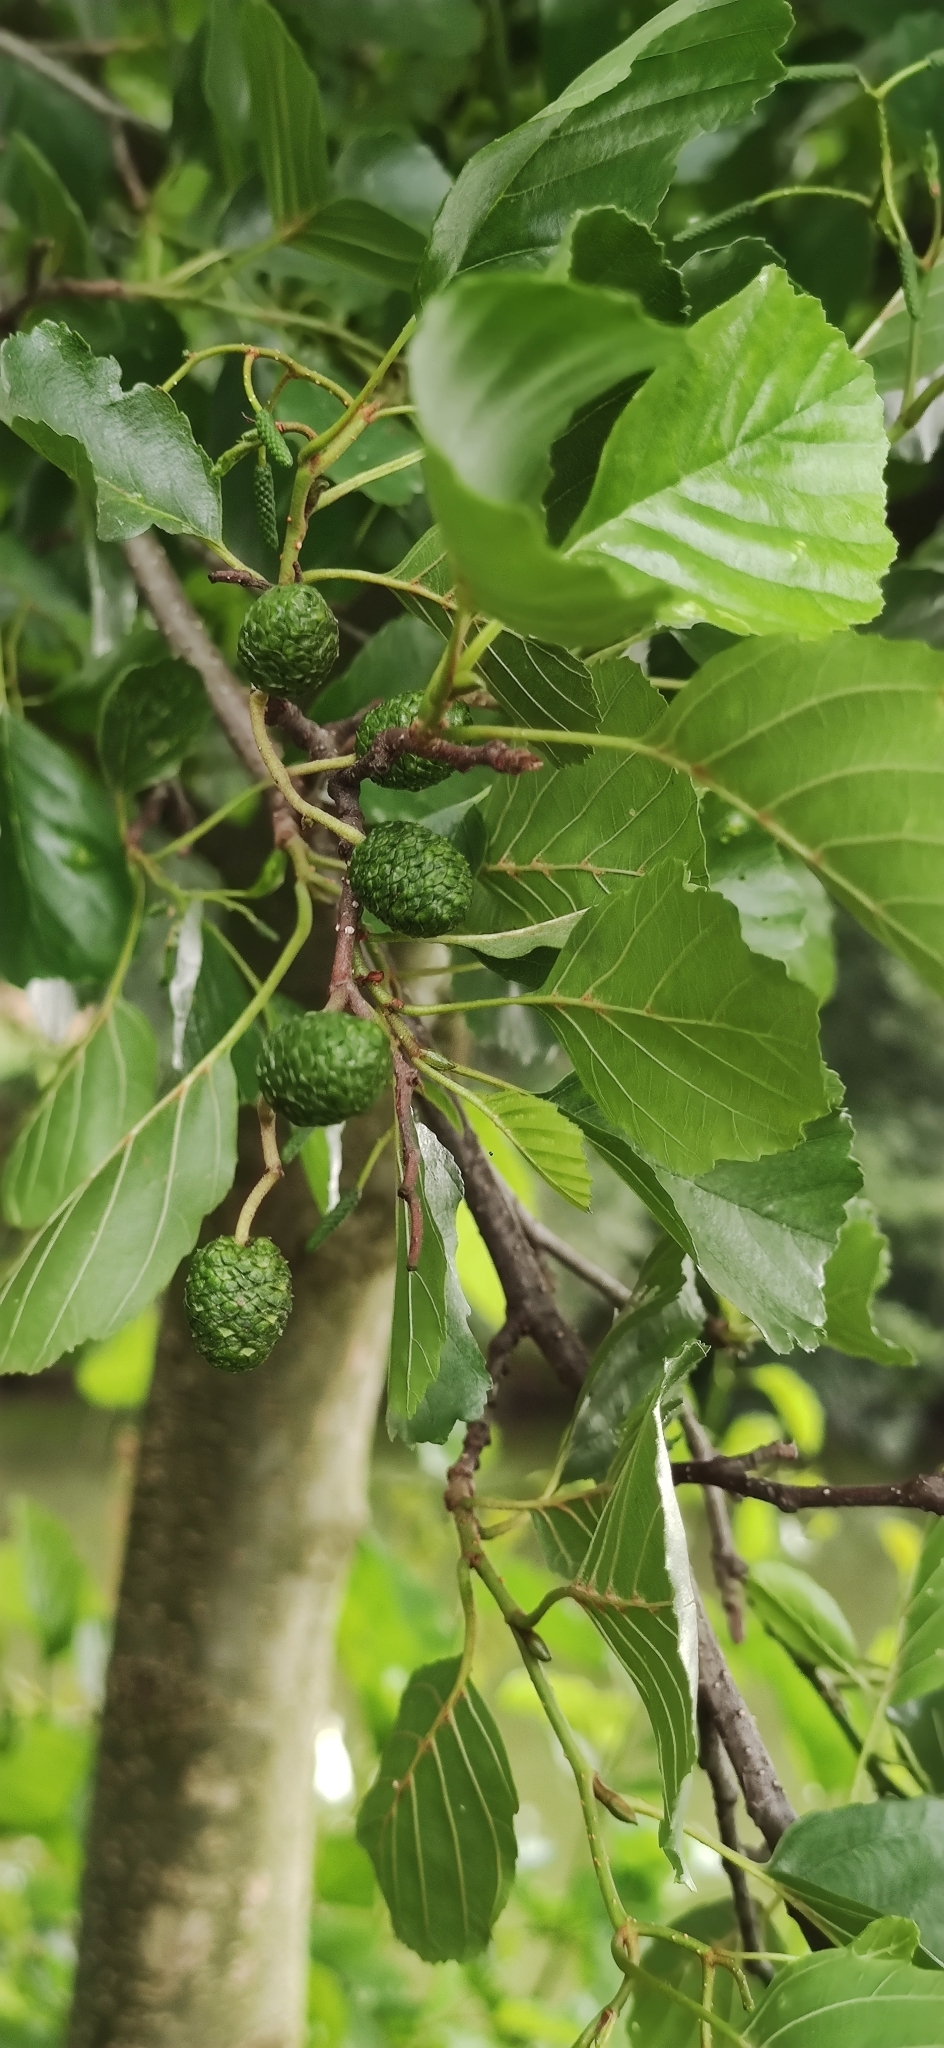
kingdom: Plantae
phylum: Tracheophyta
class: Magnoliopsida
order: Fagales
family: Betulaceae
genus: Alnus
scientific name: Alnus glutinosa
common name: Black alder
